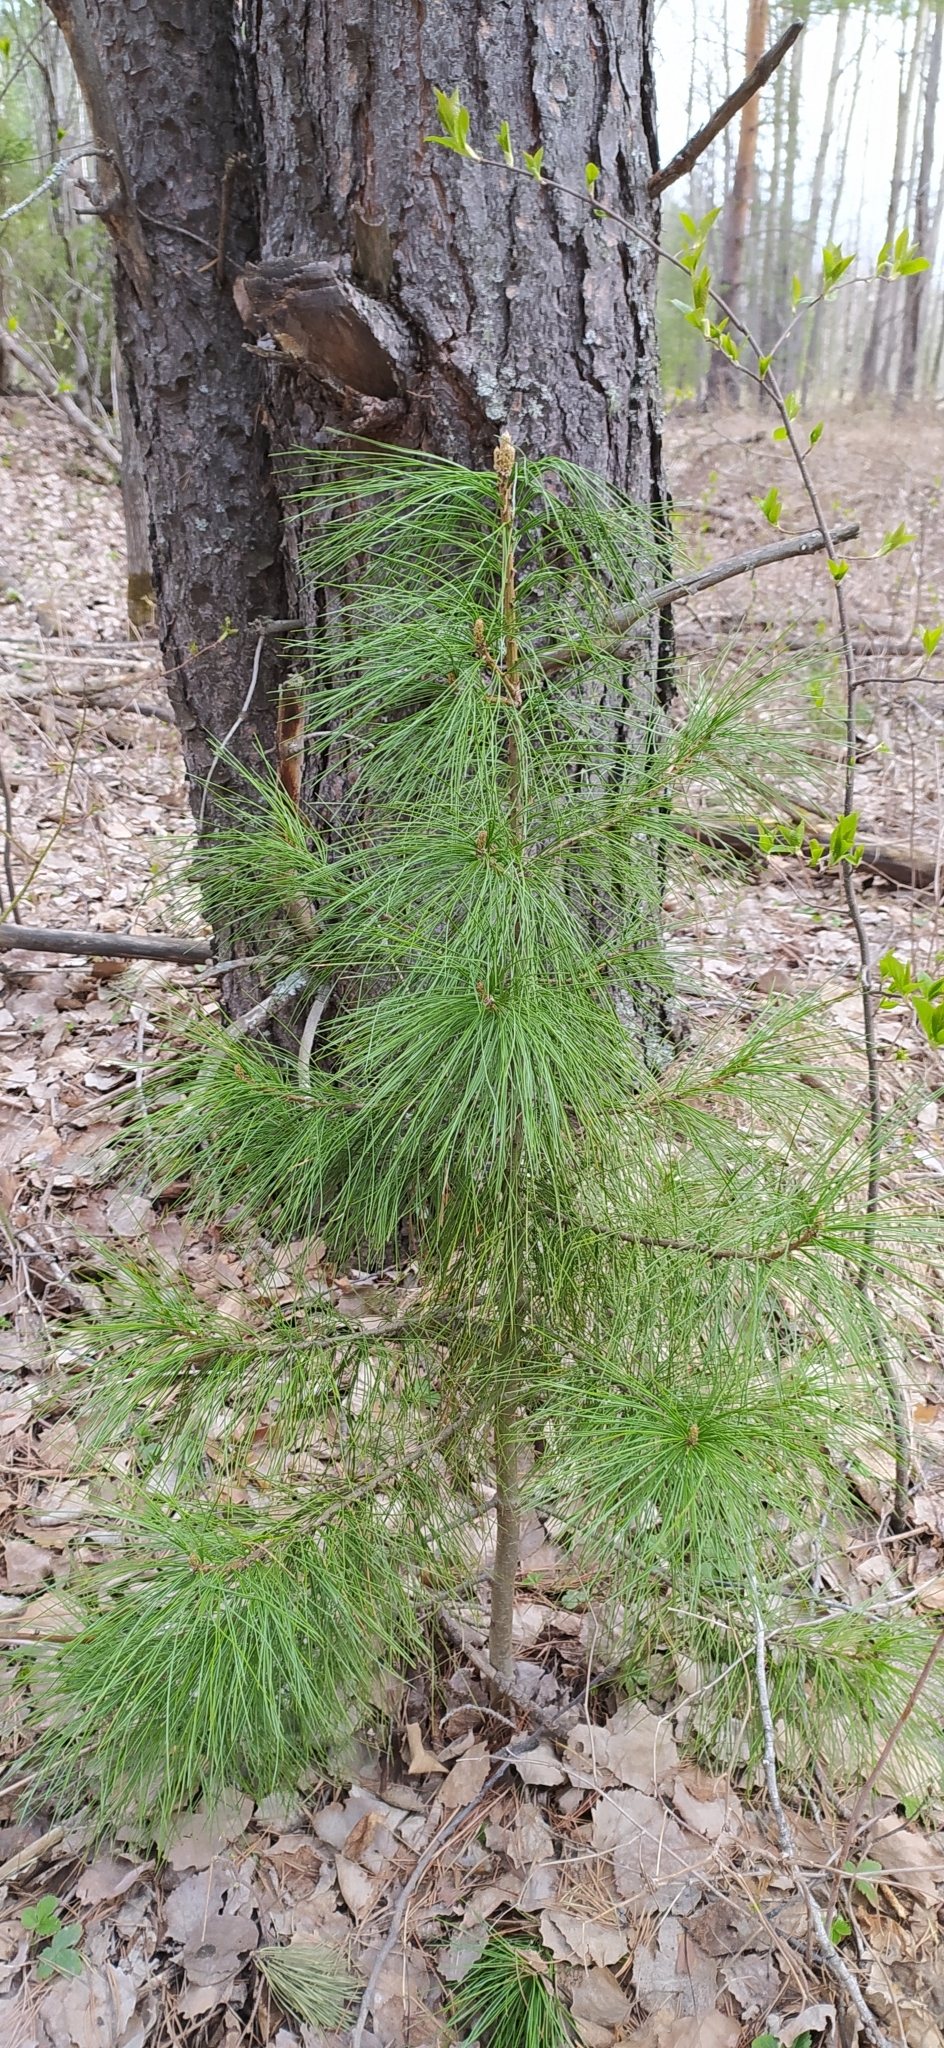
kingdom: Plantae
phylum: Tracheophyta
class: Pinopsida
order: Pinales
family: Pinaceae
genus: Pinus
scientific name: Pinus sibirica
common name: Siberian pine
